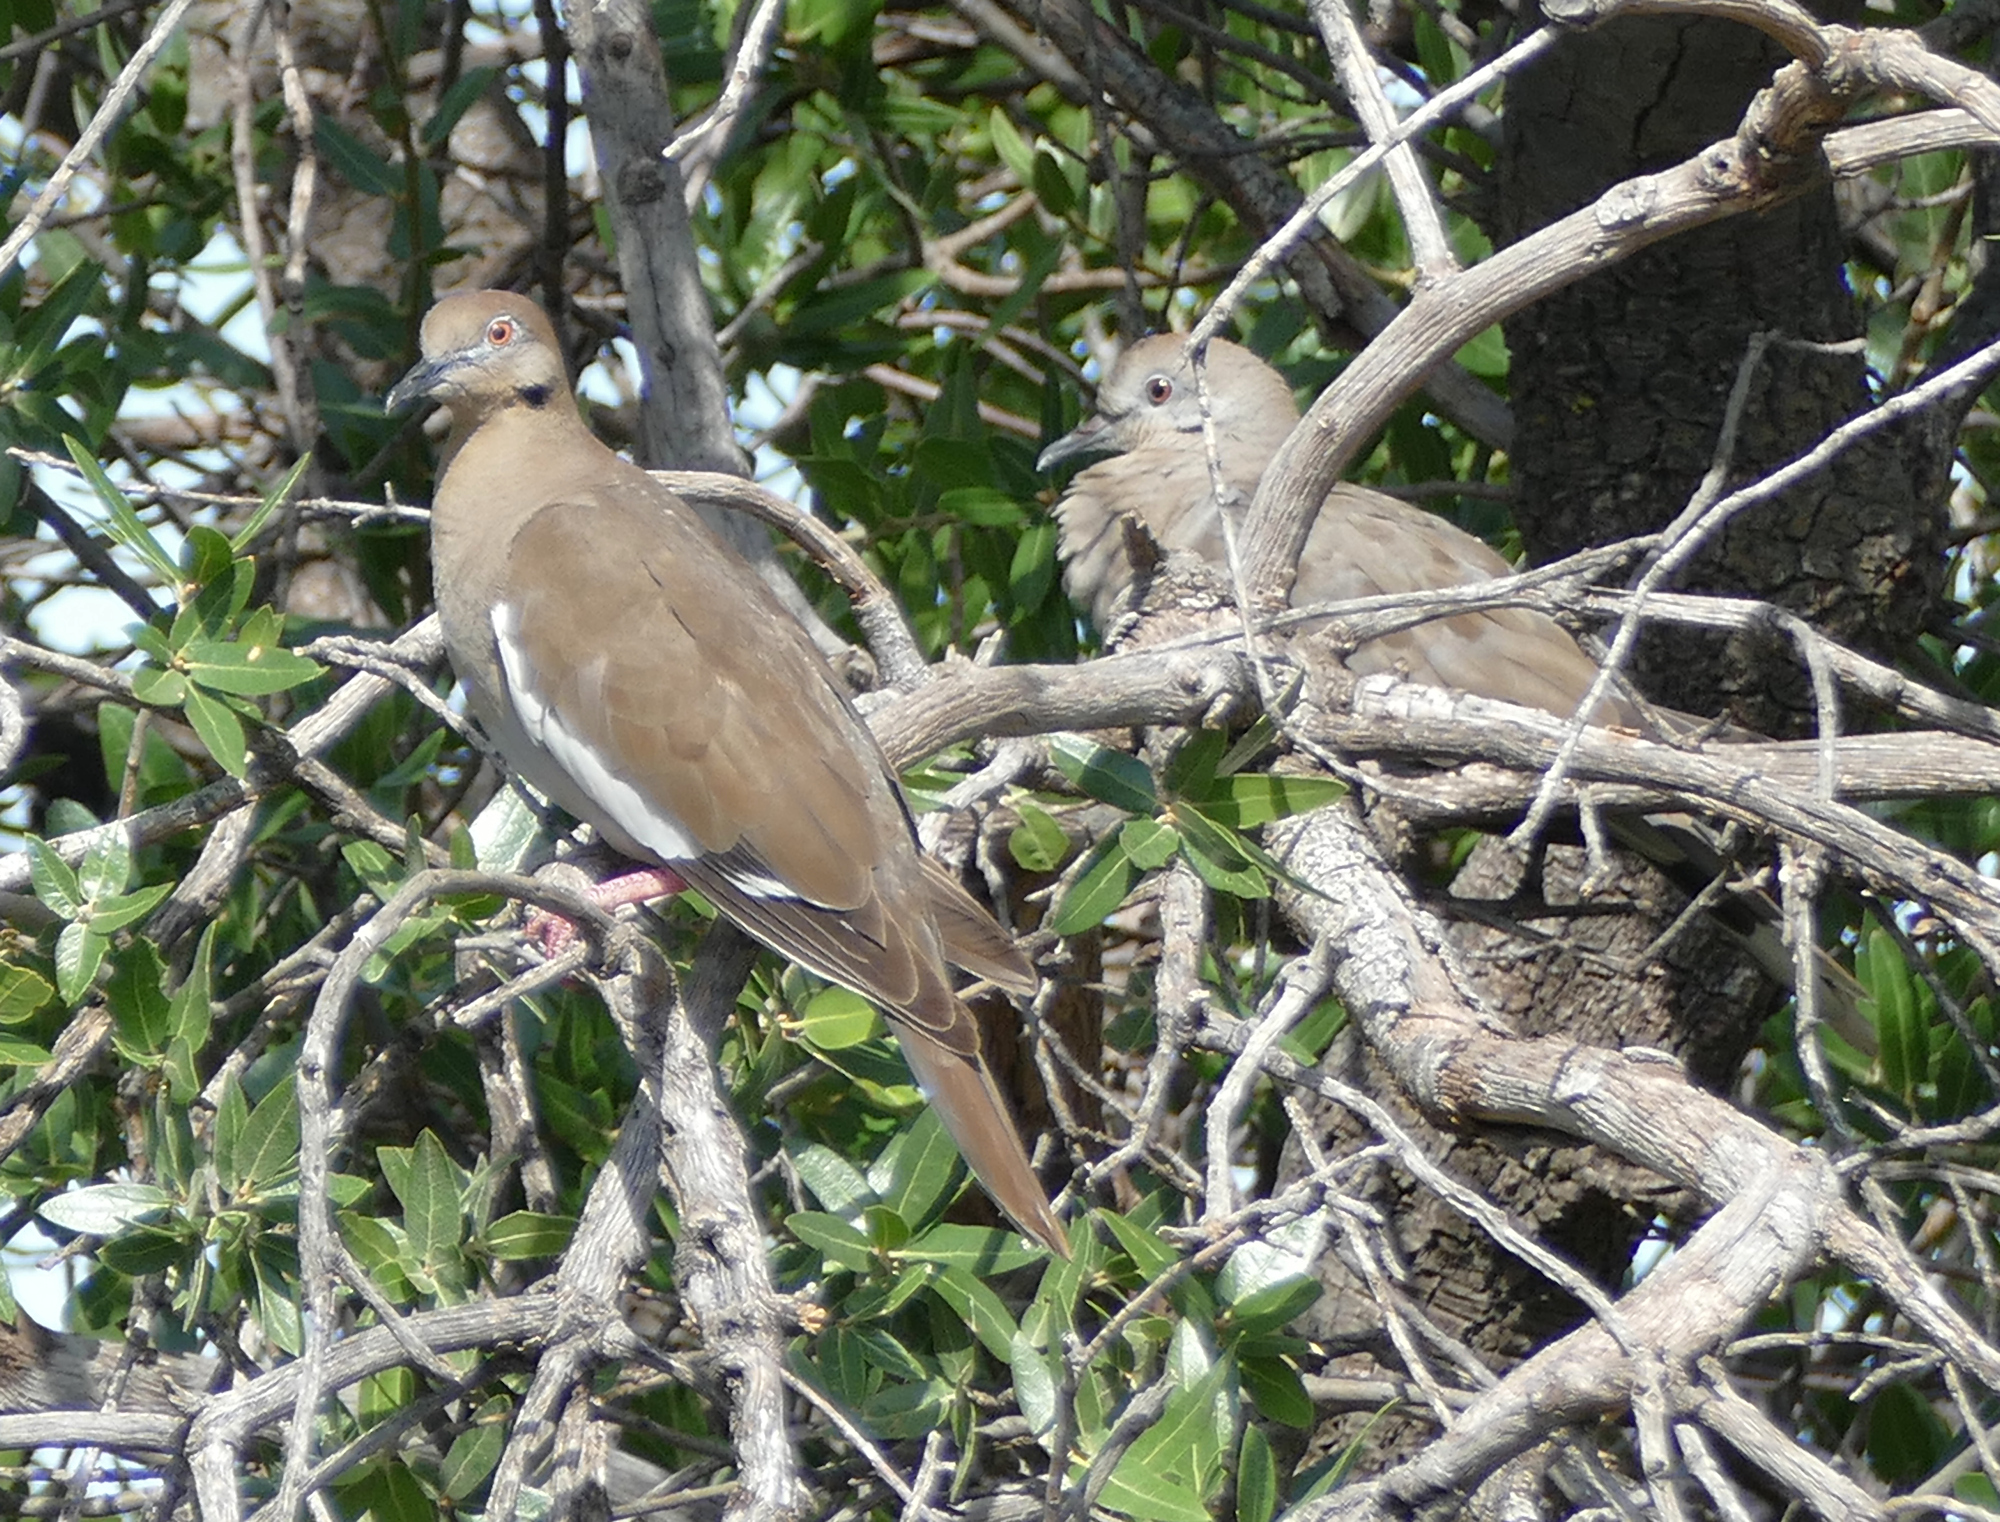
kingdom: Animalia
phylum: Chordata
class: Aves
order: Columbiformes
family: Columbidae
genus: Zenaida
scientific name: Zenaida asiatica
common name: White-winged dove
